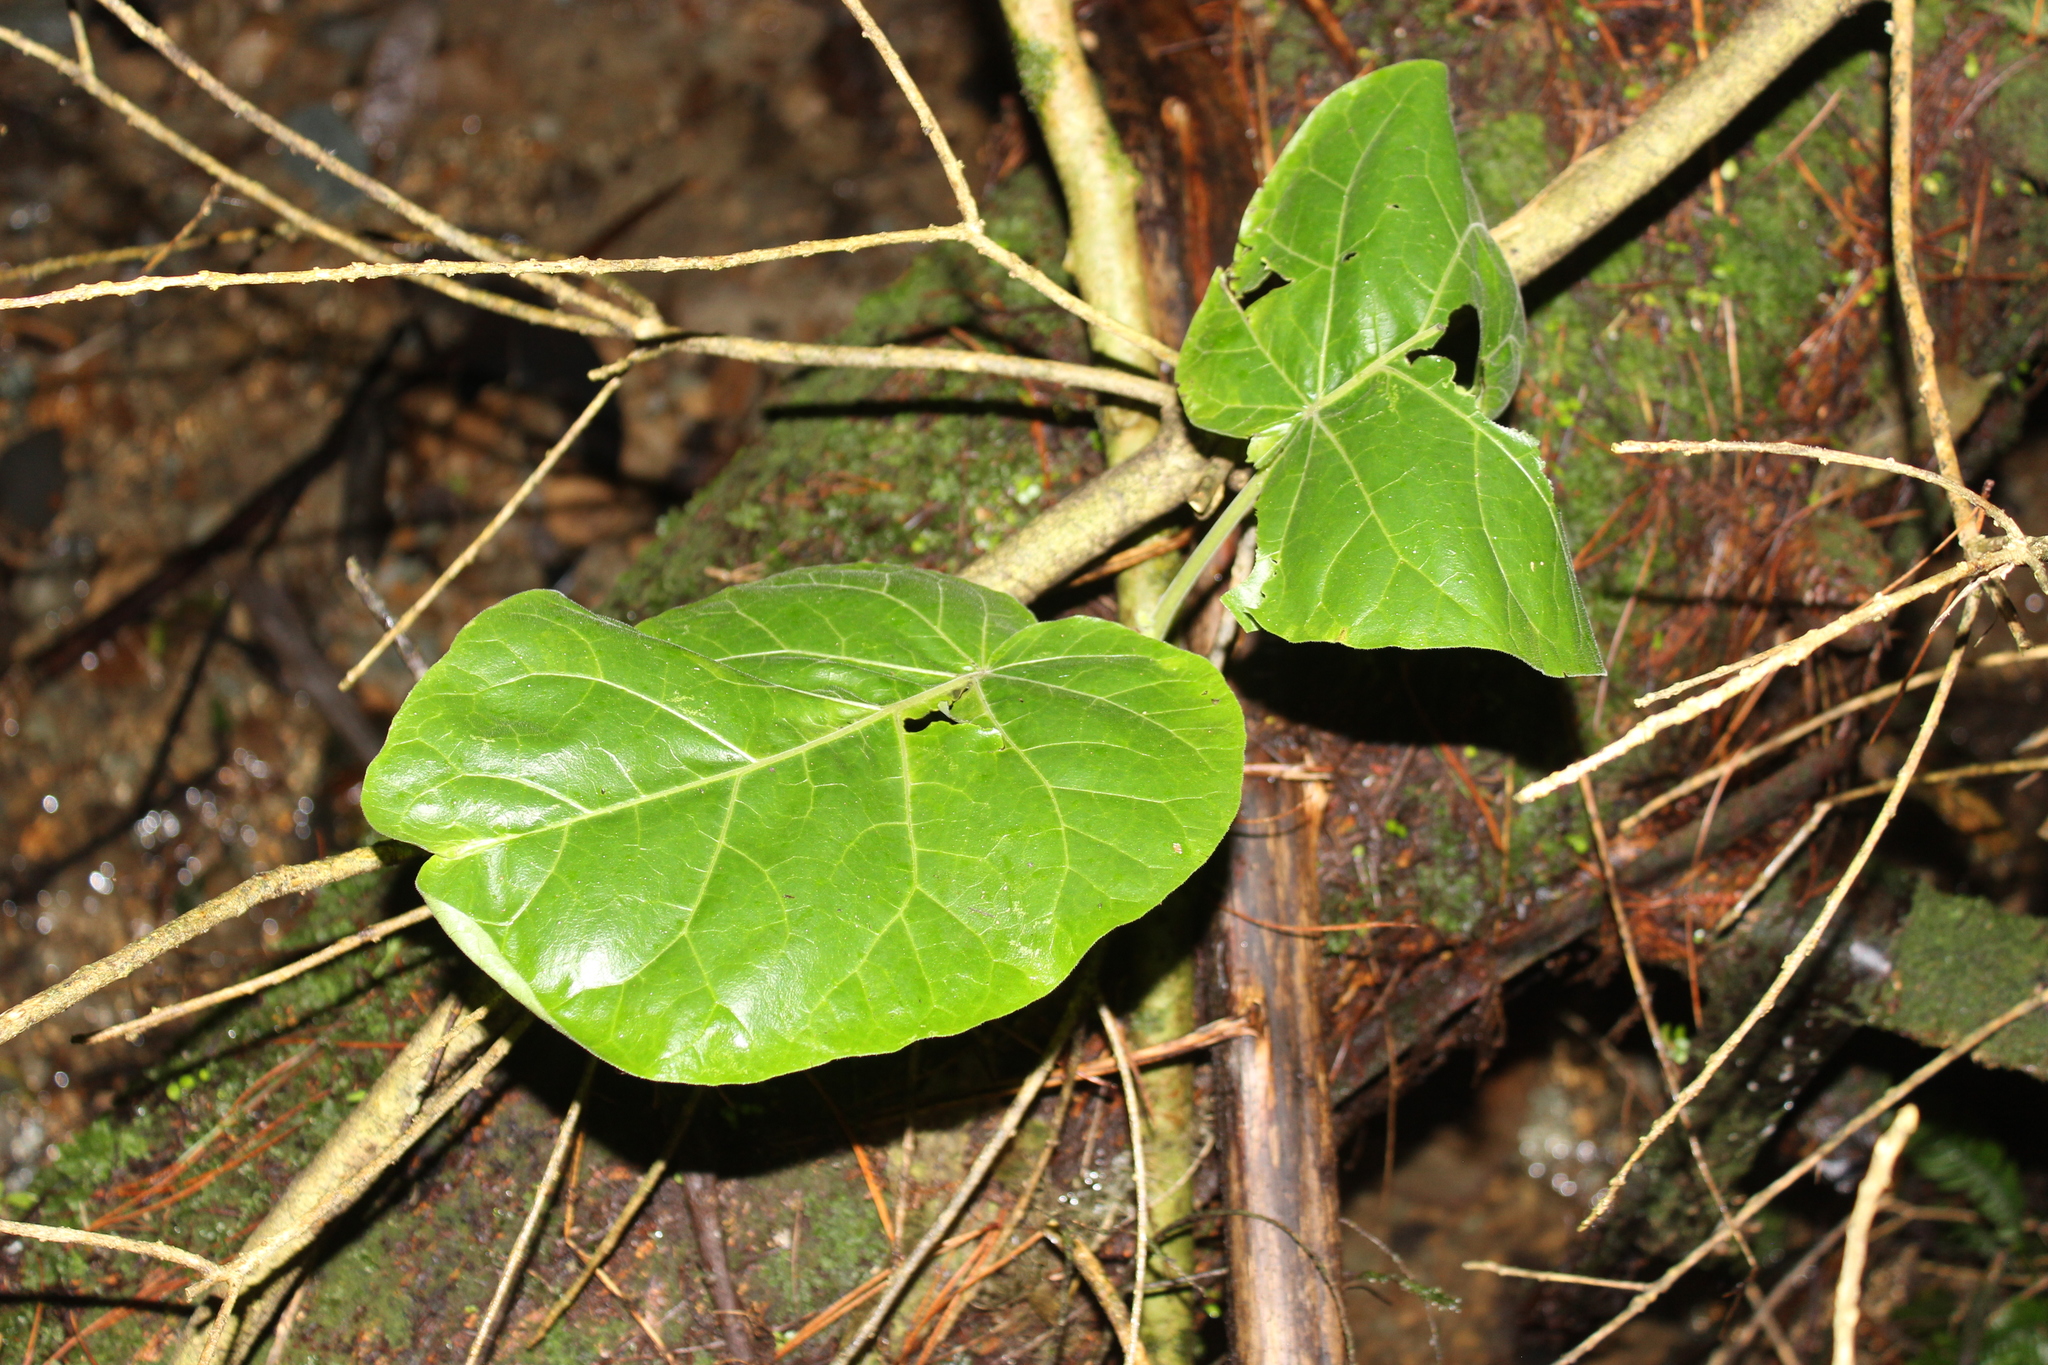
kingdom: Plantae
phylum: Tracheophyta
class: Magnoliopsida
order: Solanales
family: Solanaceae
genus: Solanum
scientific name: Solanum betaceum
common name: Tamarillo
